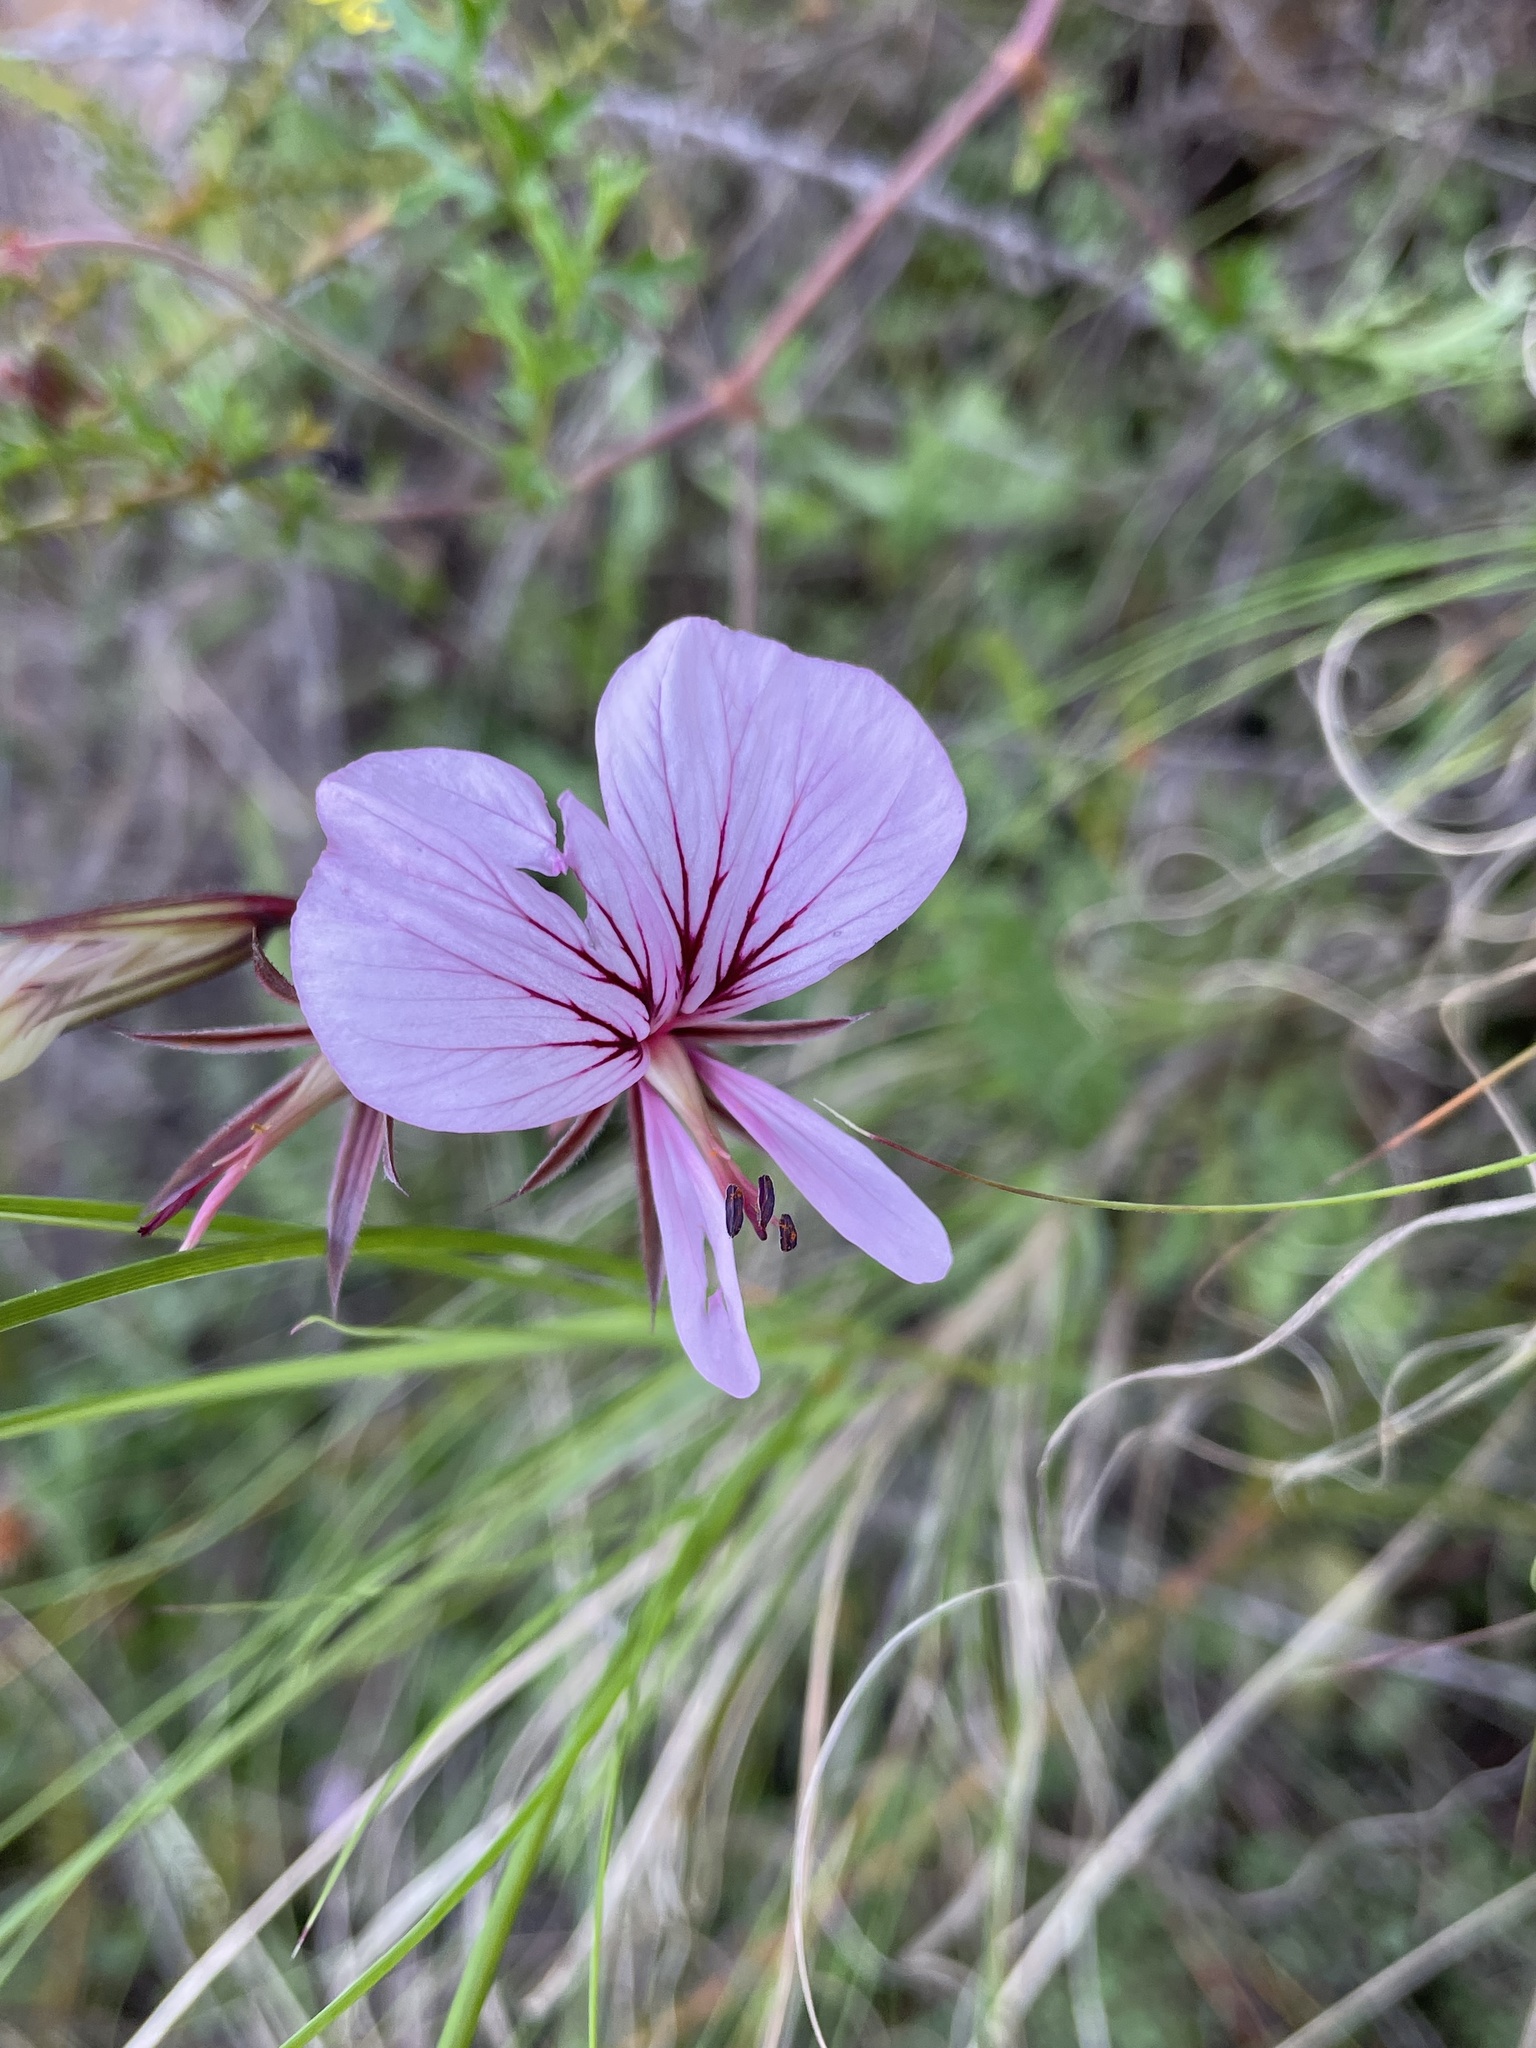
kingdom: Plantae
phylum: Tracheophyta
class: Magnoliopsida
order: Geraniales
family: Geraniaceae
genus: Pelargonium
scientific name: Pelargonium myrrhifolium
